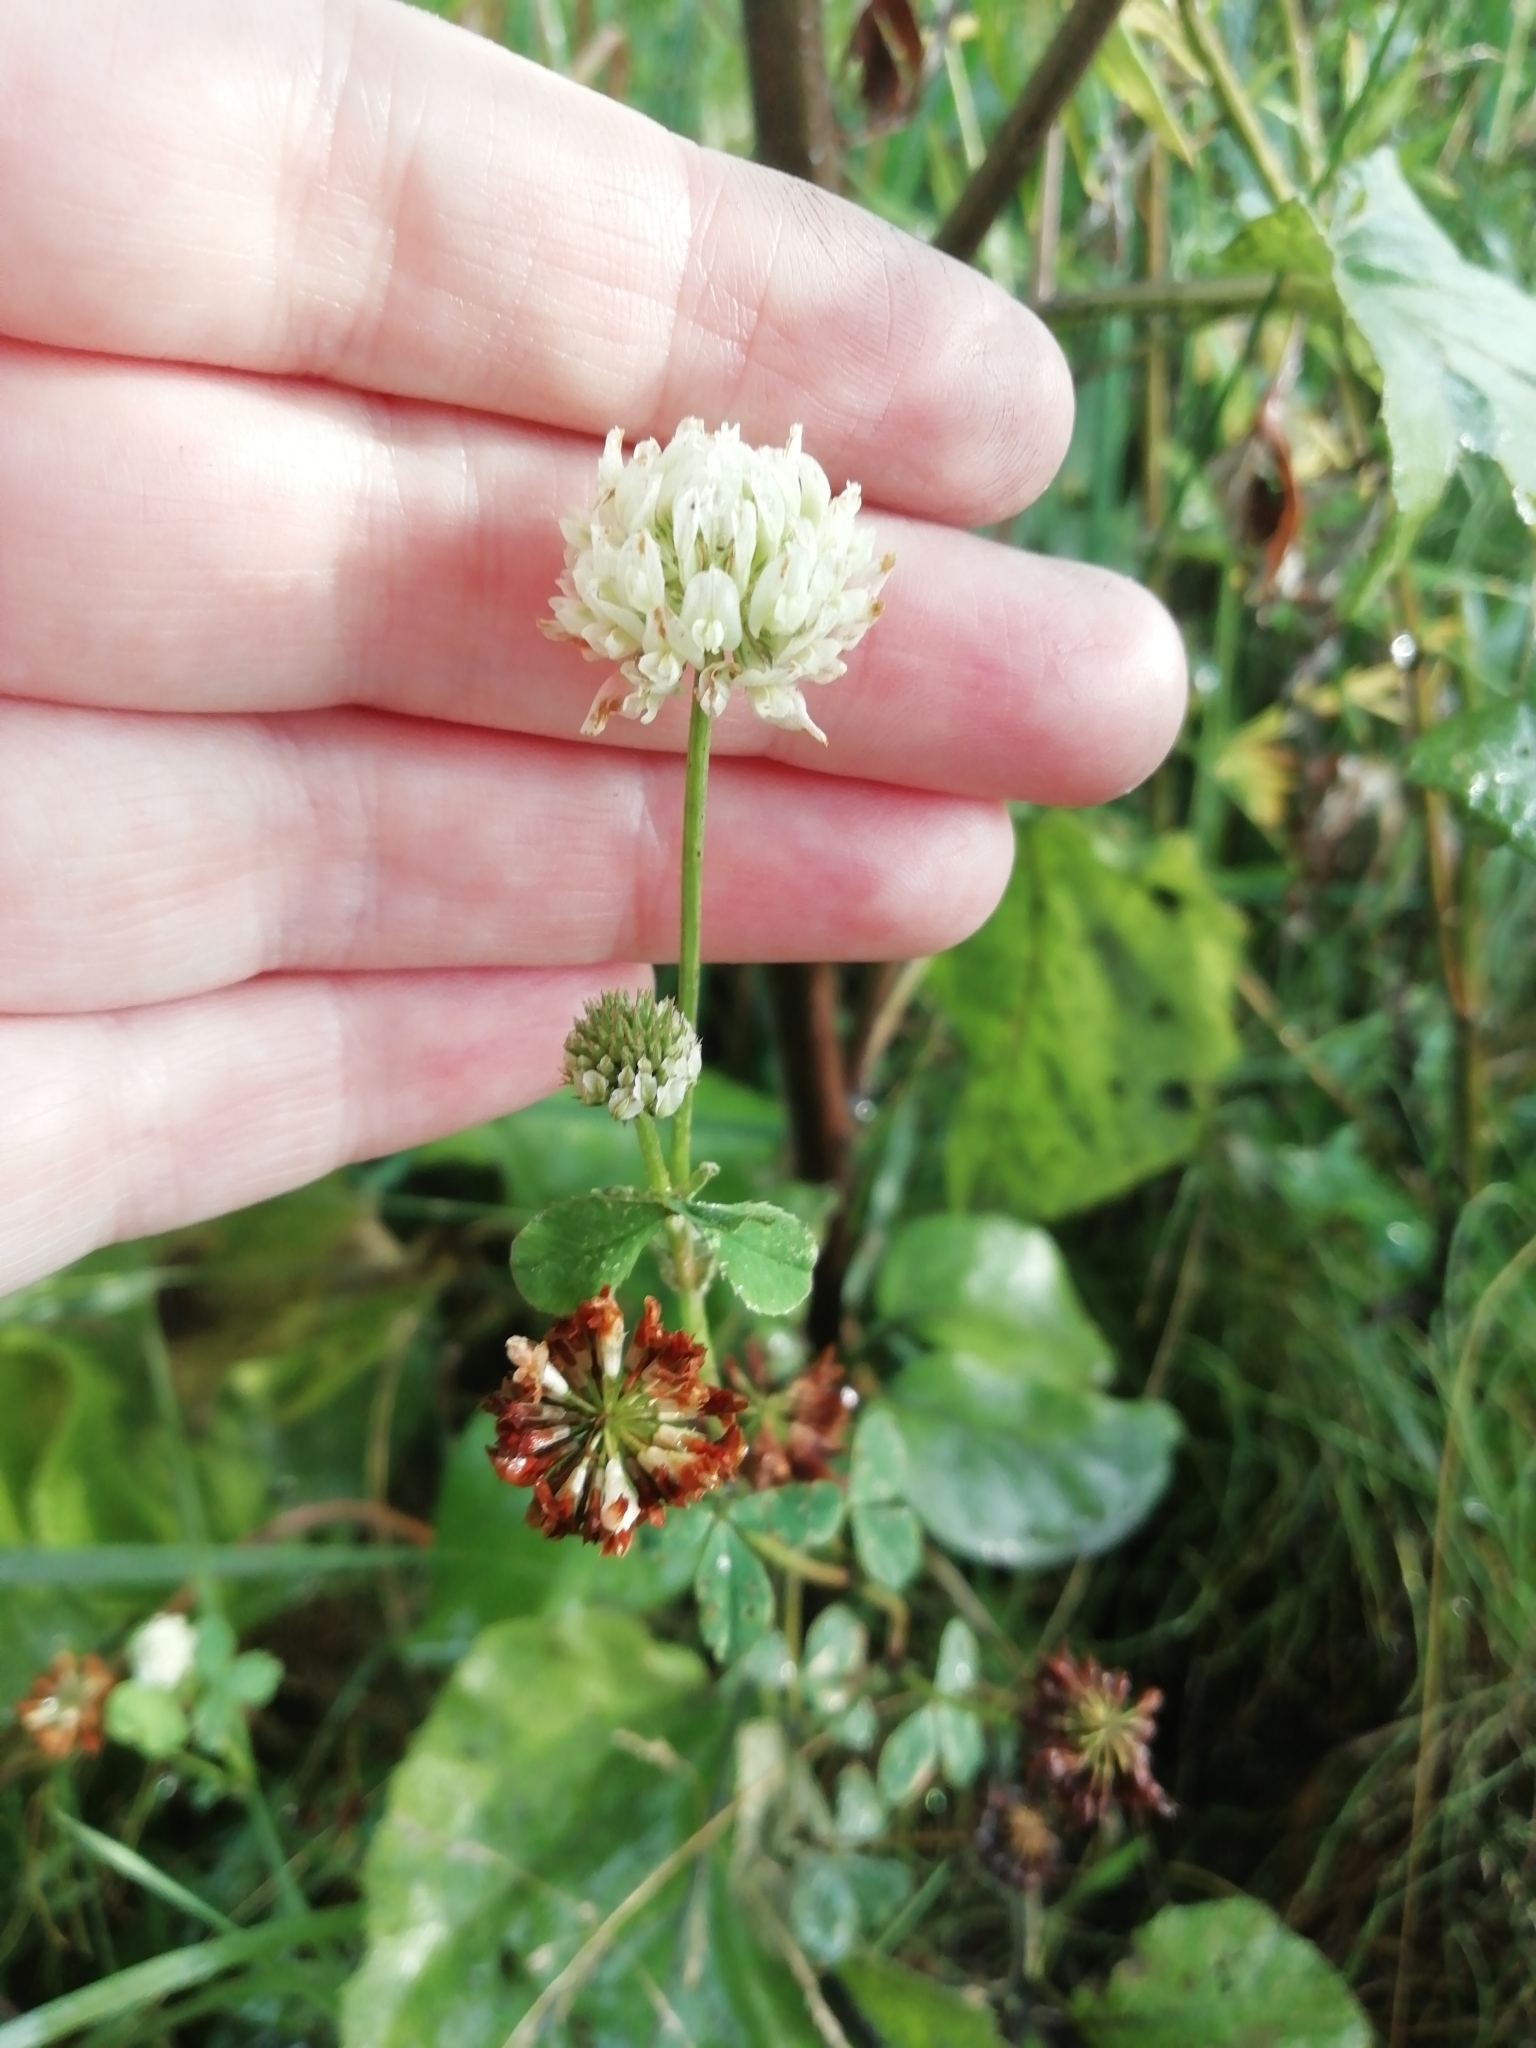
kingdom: Plantae
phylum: Tracheophyta
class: Magnoliopsida
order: Fabales
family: Fabaceae
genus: Trifolium
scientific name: Trifolium repens
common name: White clover
